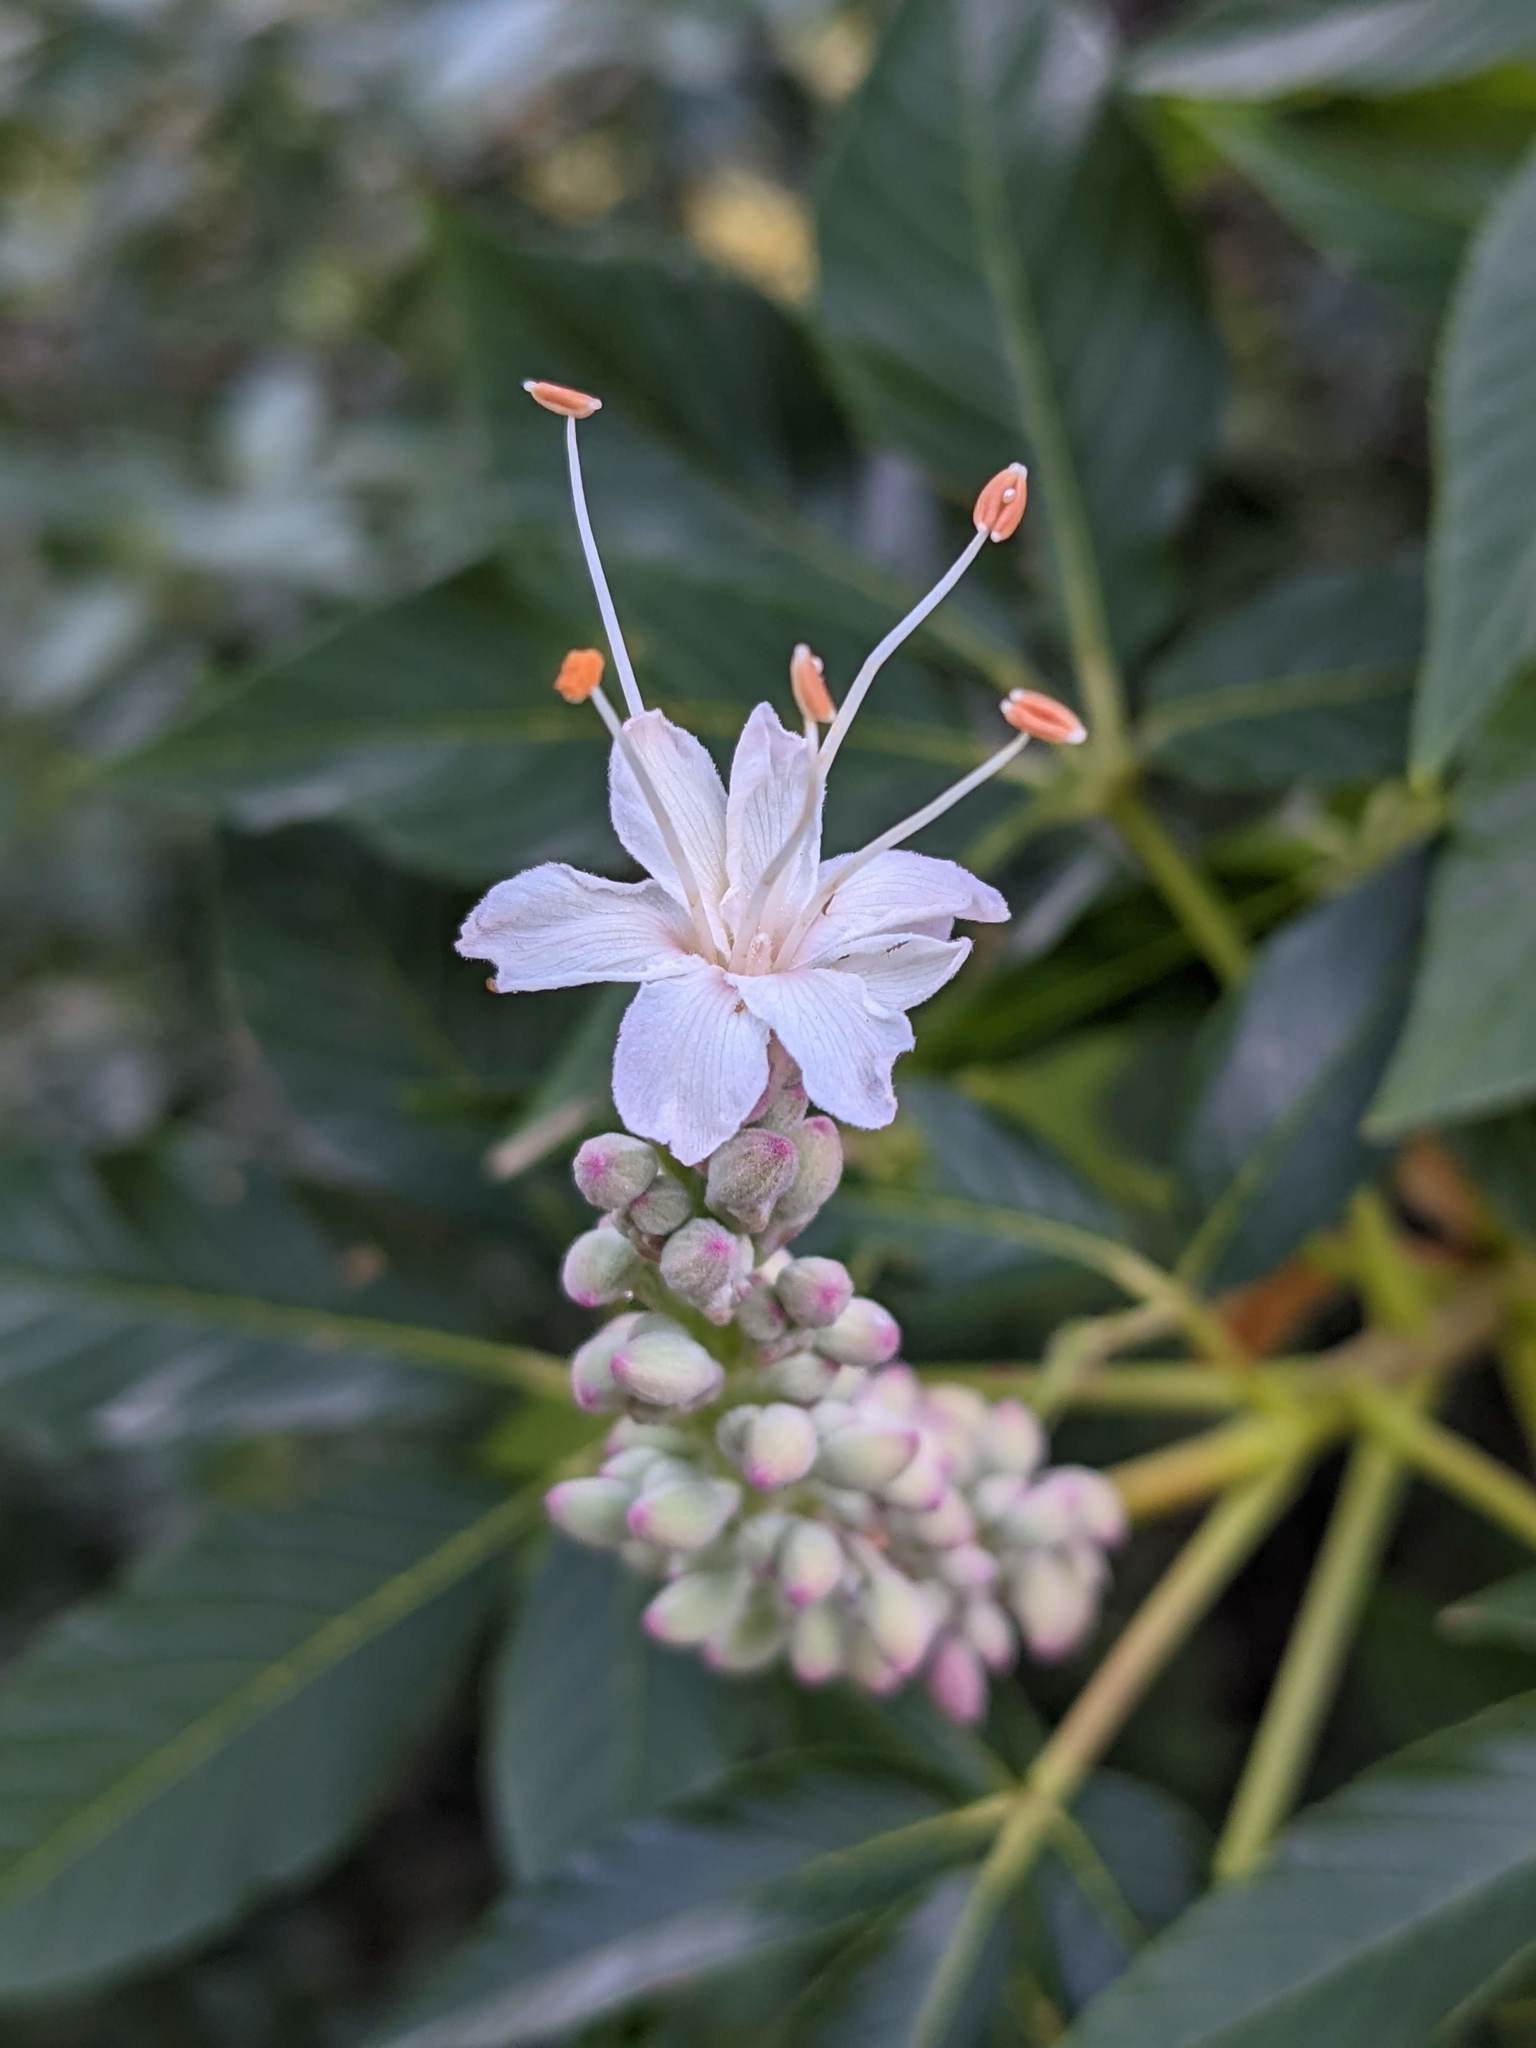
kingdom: Plantae
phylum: Tracheophyta
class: Magnoliopsida
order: Sapindales
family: Sapindaceae
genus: Aesculus
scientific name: Aesculus californica
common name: California buckeye
